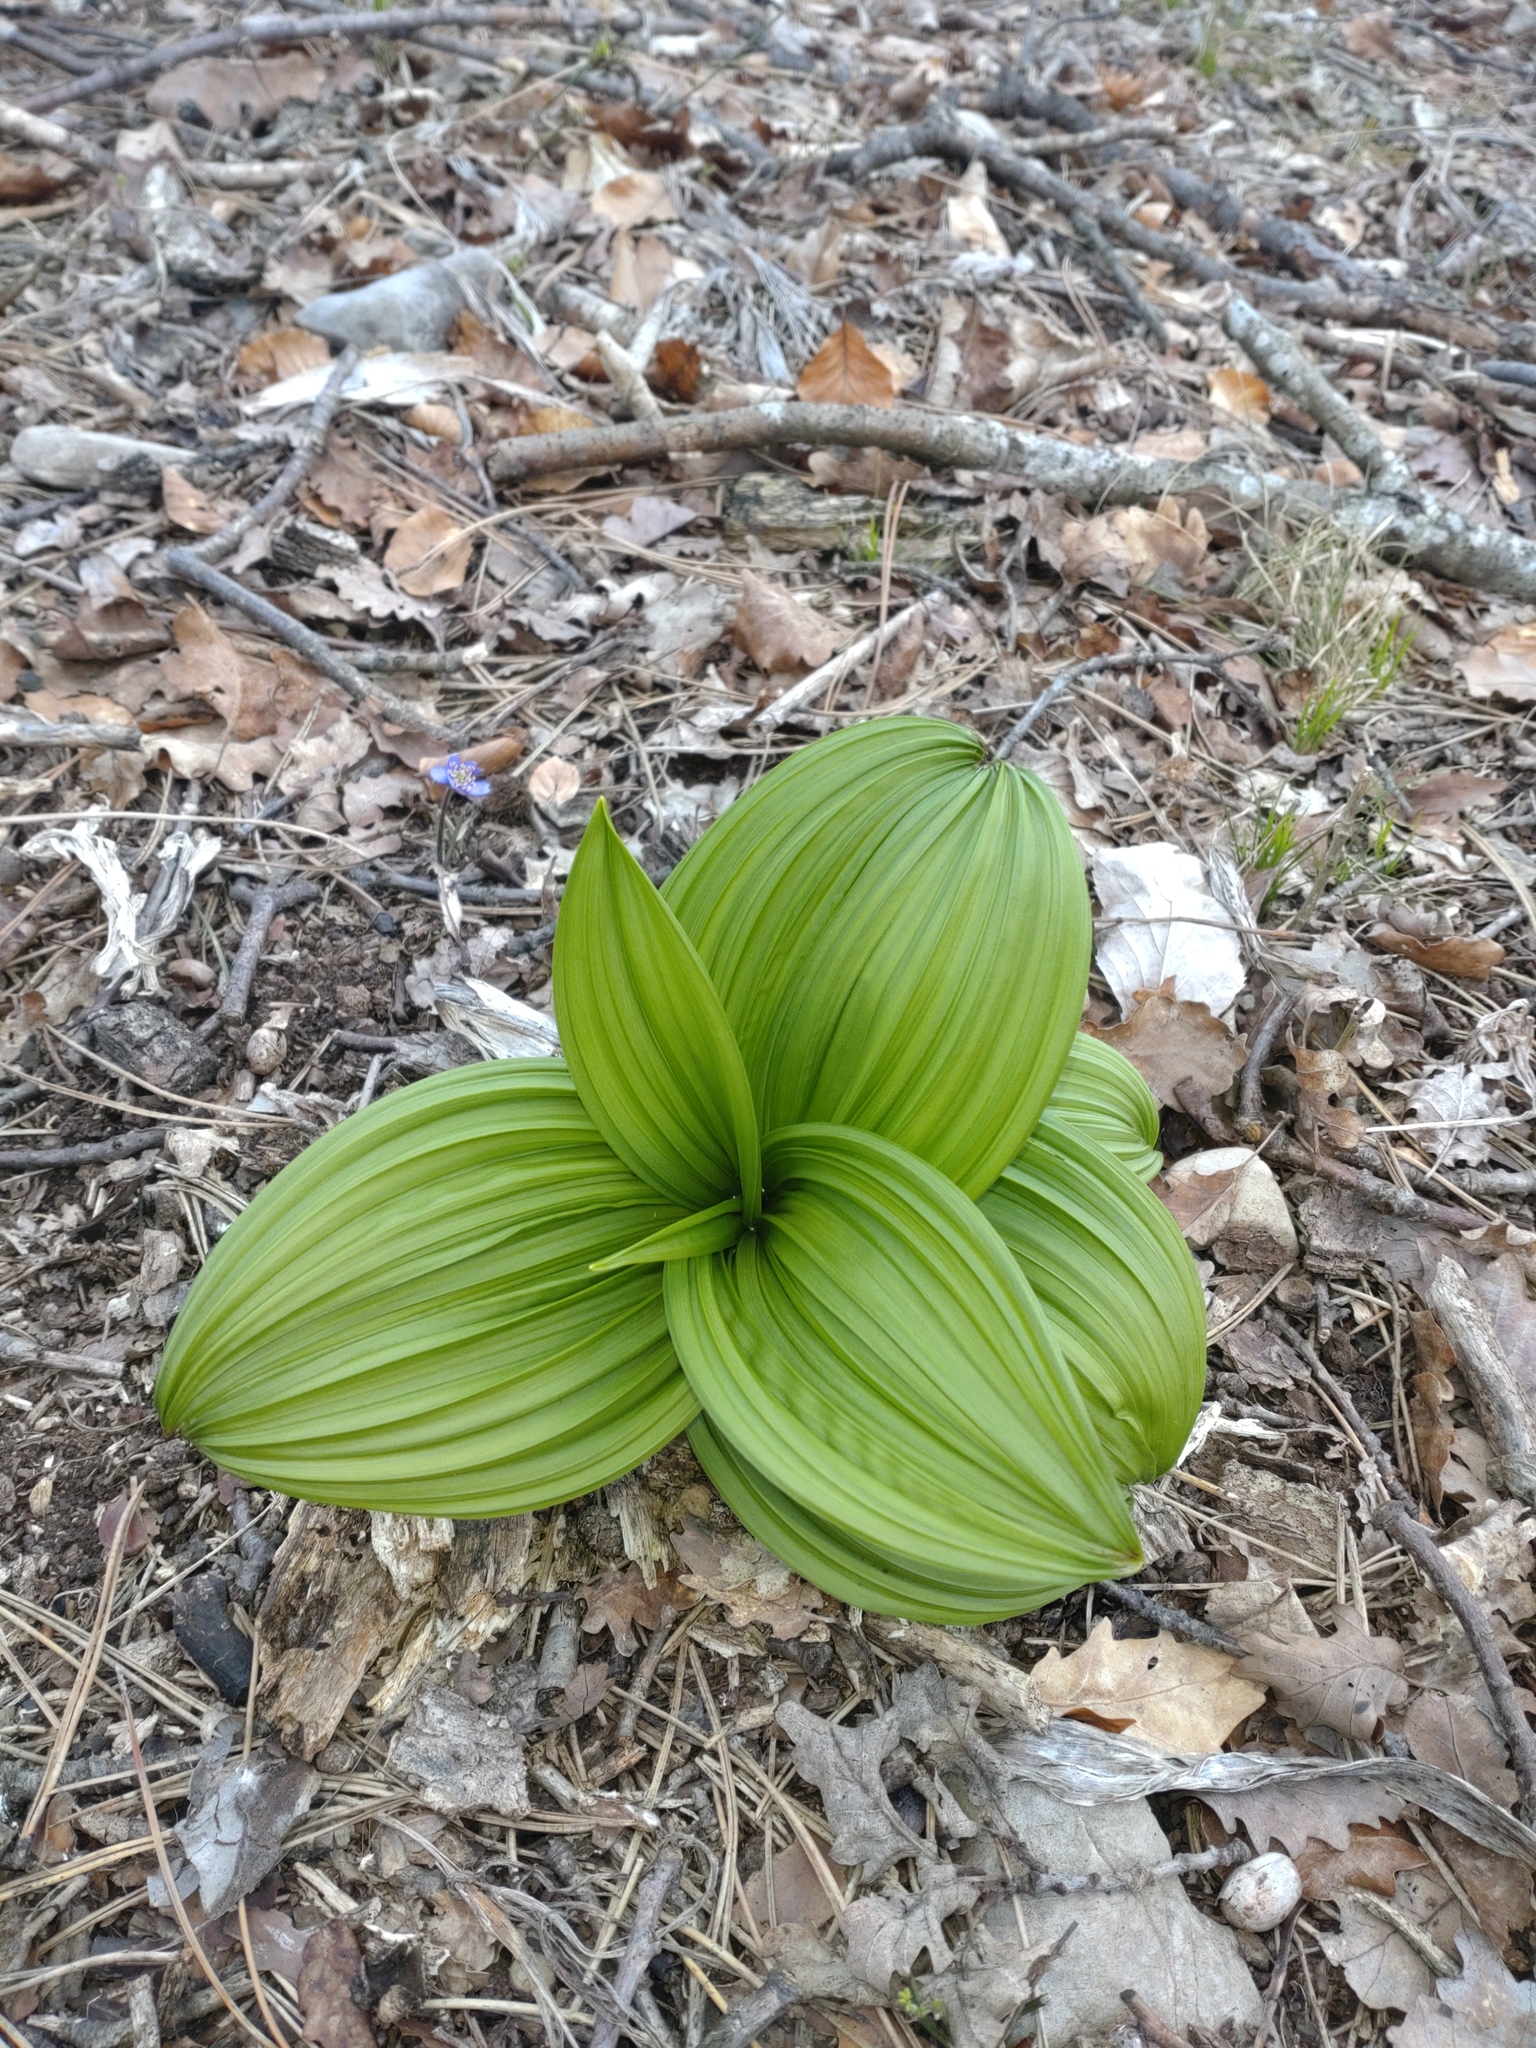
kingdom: Plantae
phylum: Tracheophyta
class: Liliopsida
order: Liliales
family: Melanthiaceae
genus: Veratrum
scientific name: Veratrum nigrum
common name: Black veratrum
